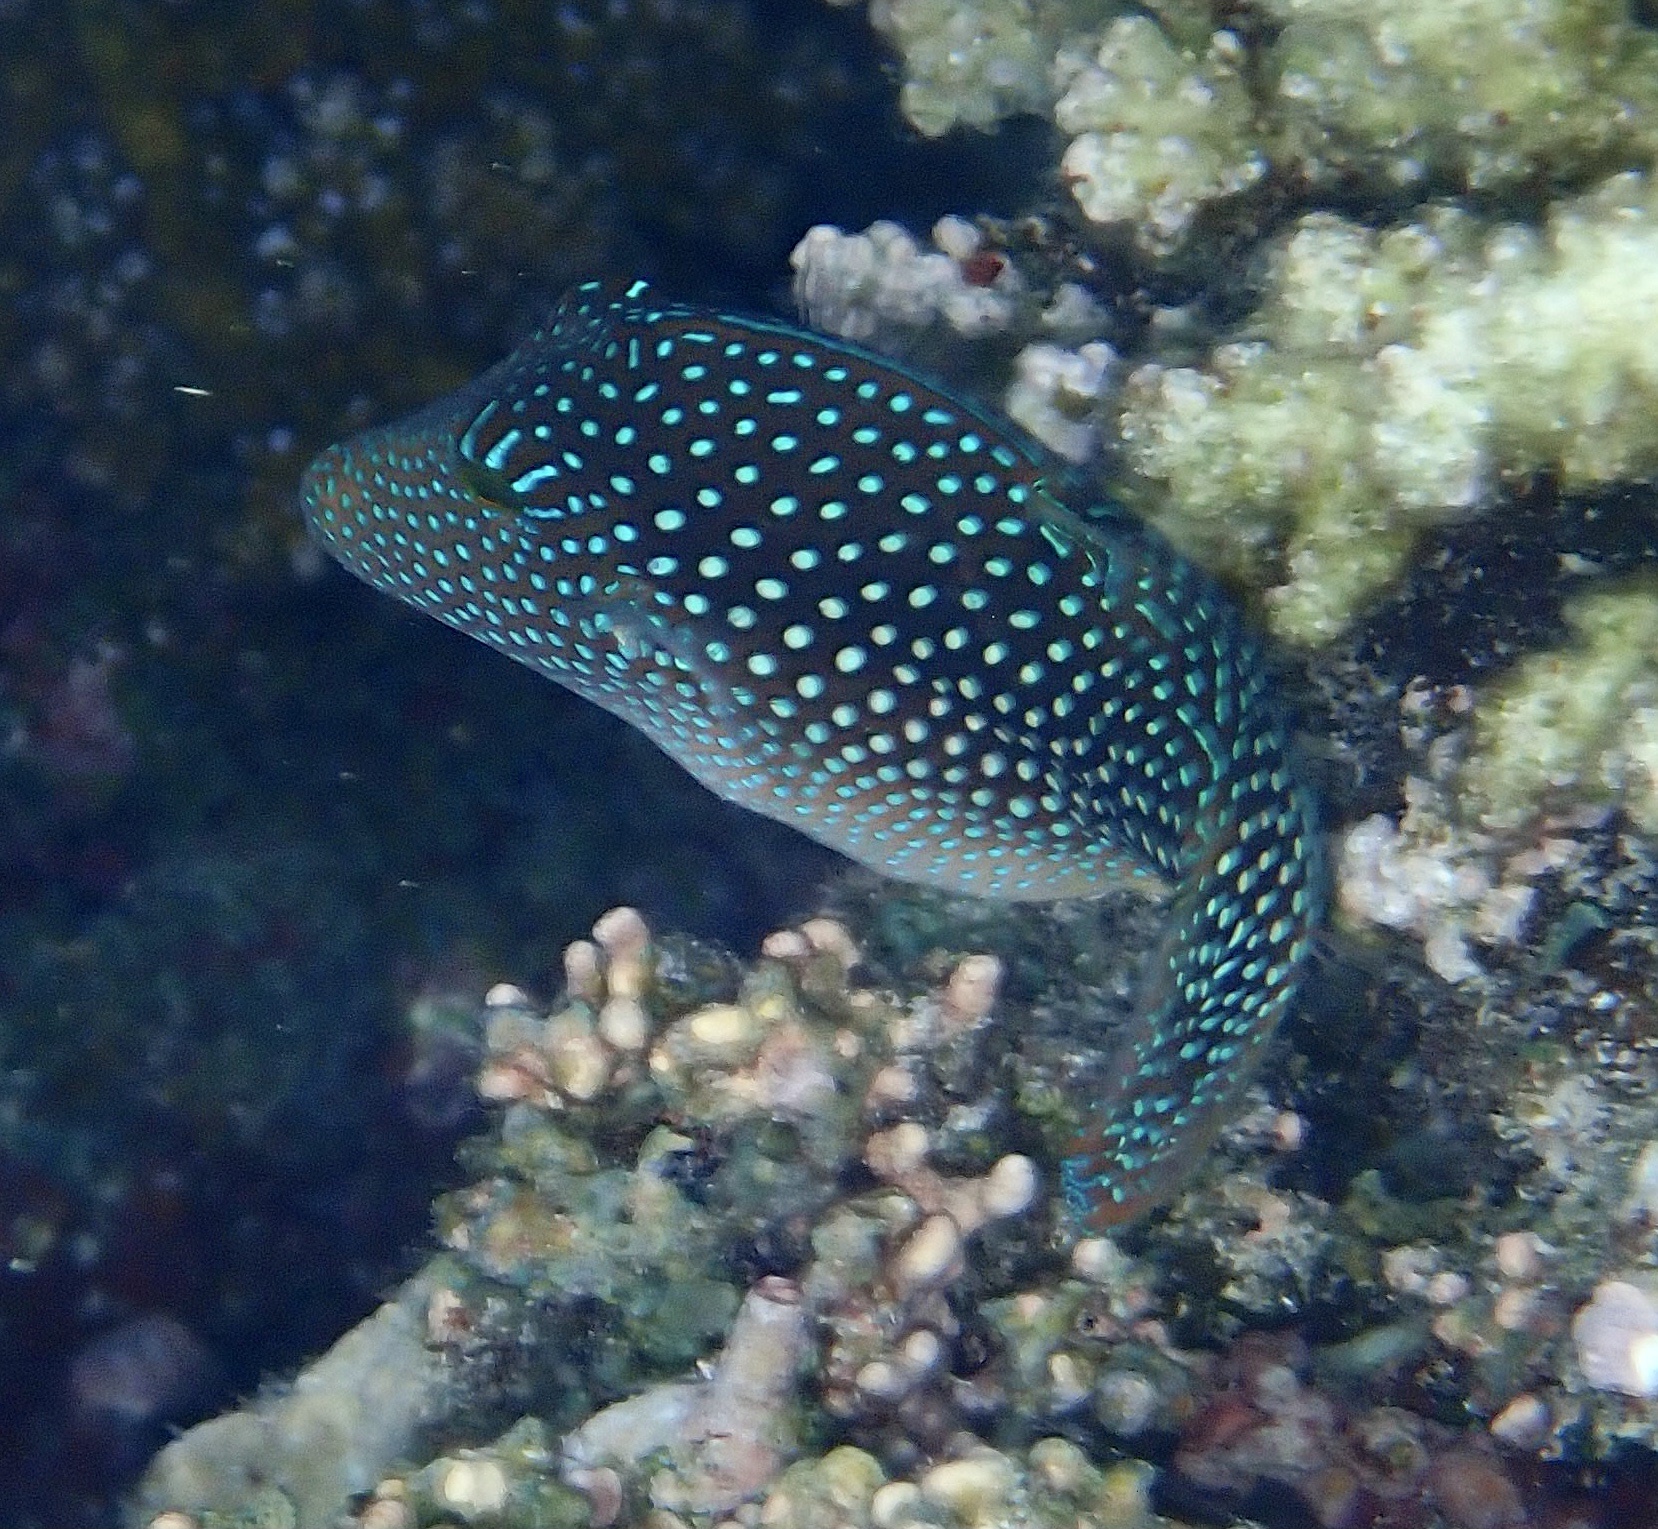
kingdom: Animalia
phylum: Chordata
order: Tetraodontiformes
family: Tetraodontidae
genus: Canthigaster
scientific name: Canthigaster margaritata
